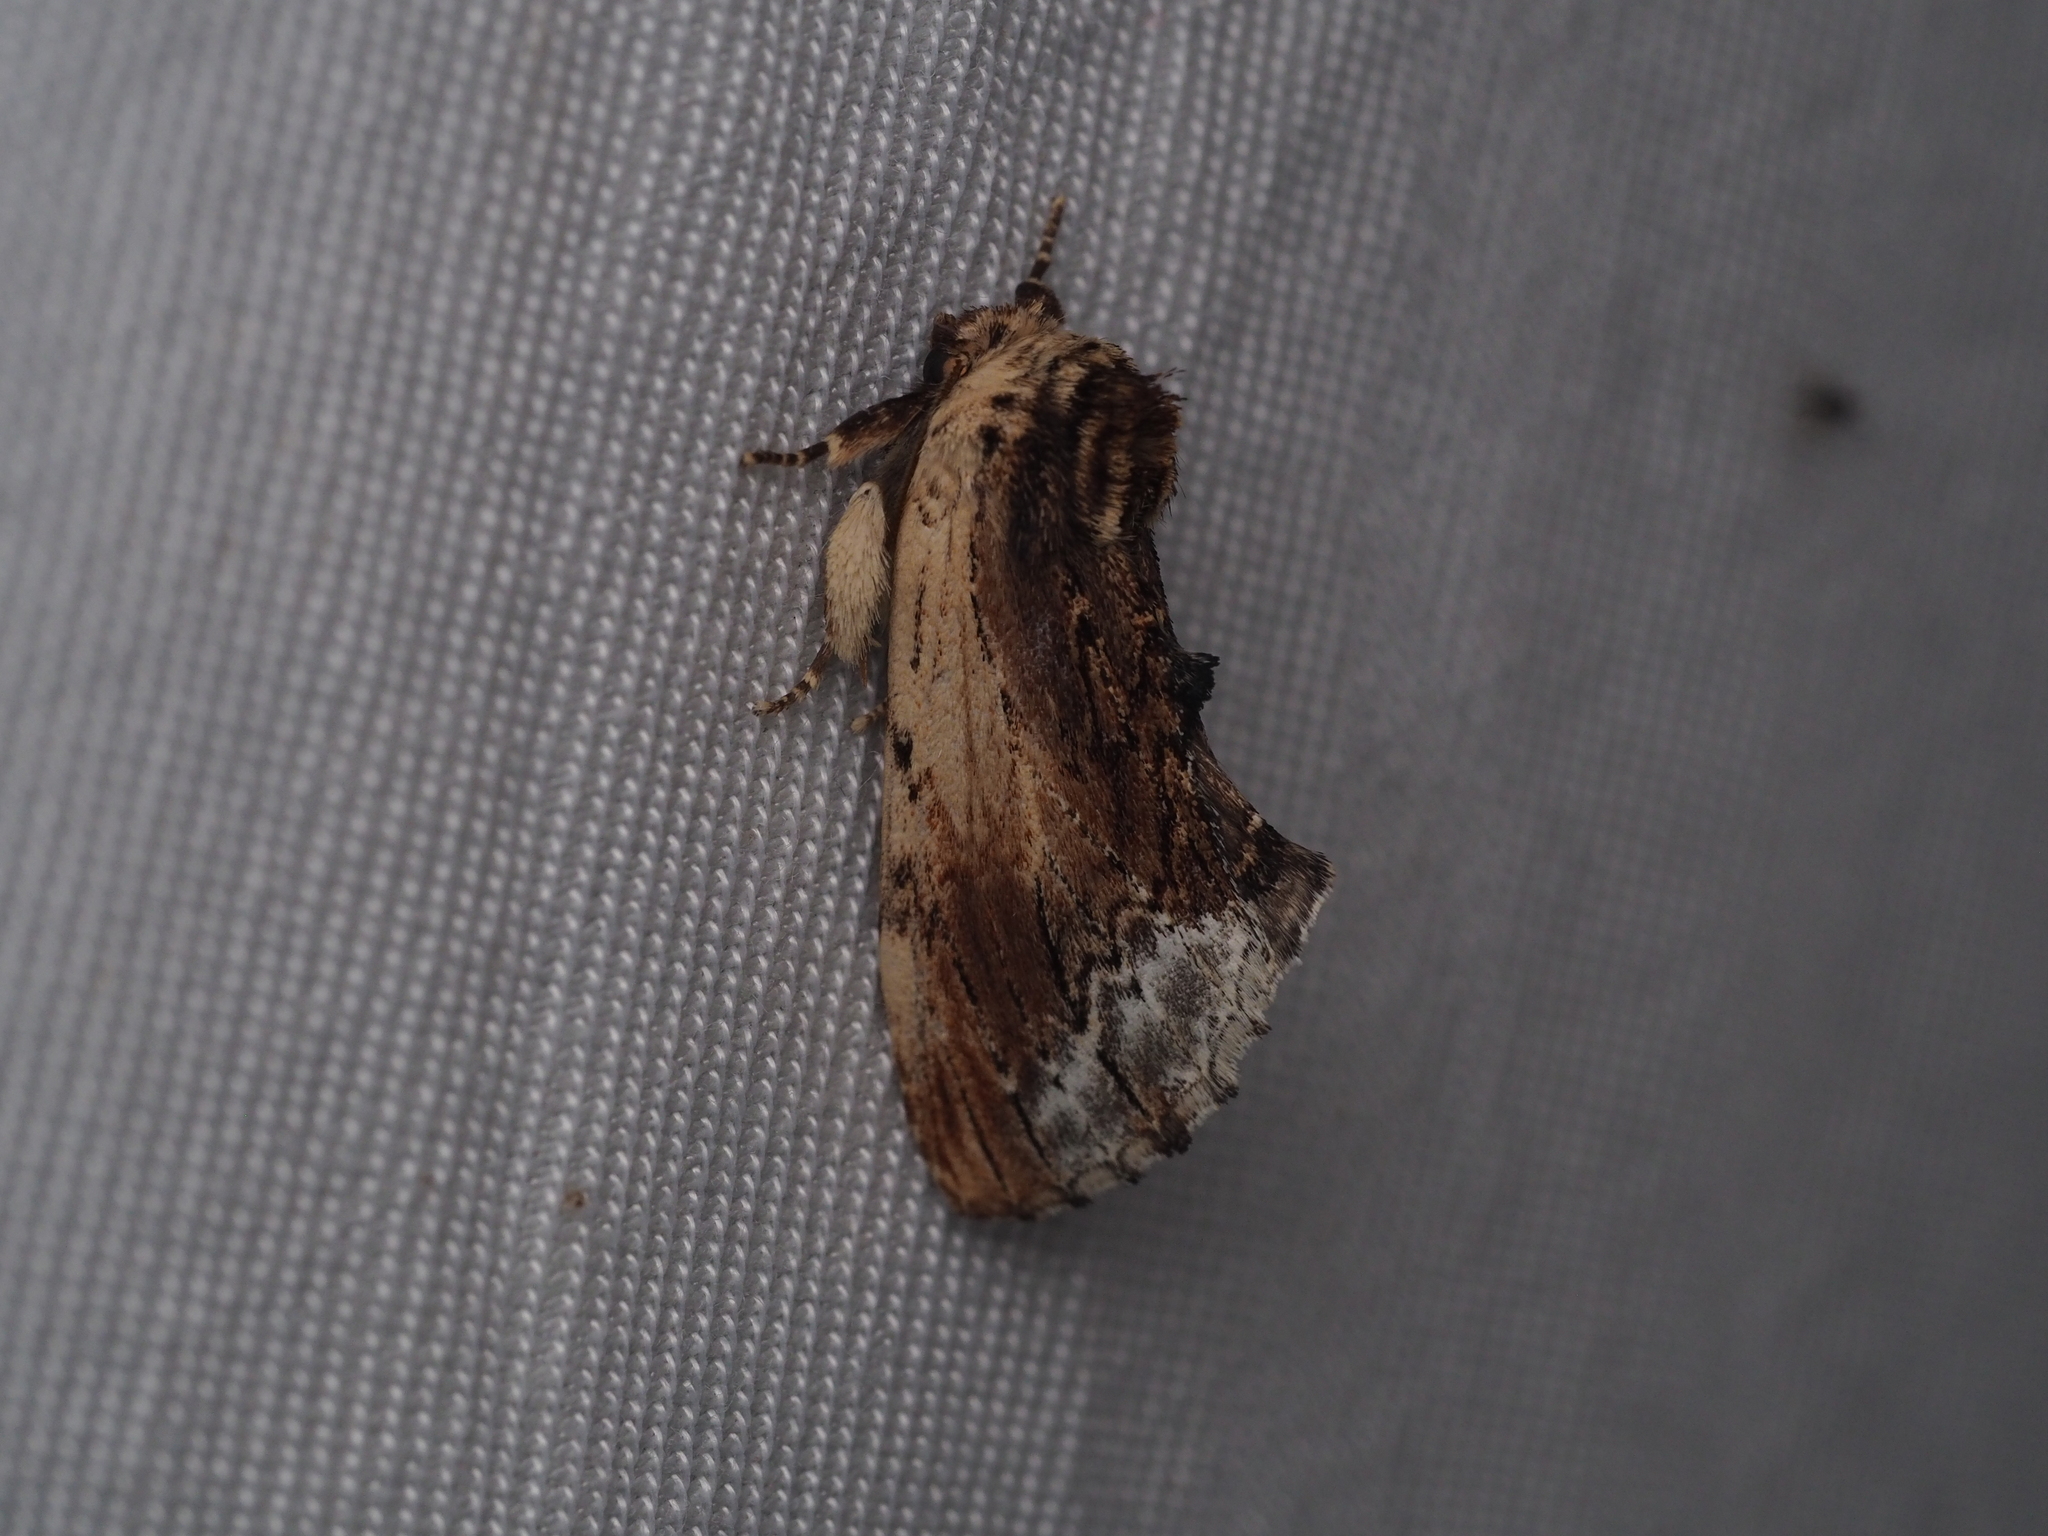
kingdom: Animalia
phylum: Arthropoda
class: Insecta
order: Lepidoptera
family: Notodontidae
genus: Ptilodon
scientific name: Ptilodon cucullina
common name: Maple prominent
